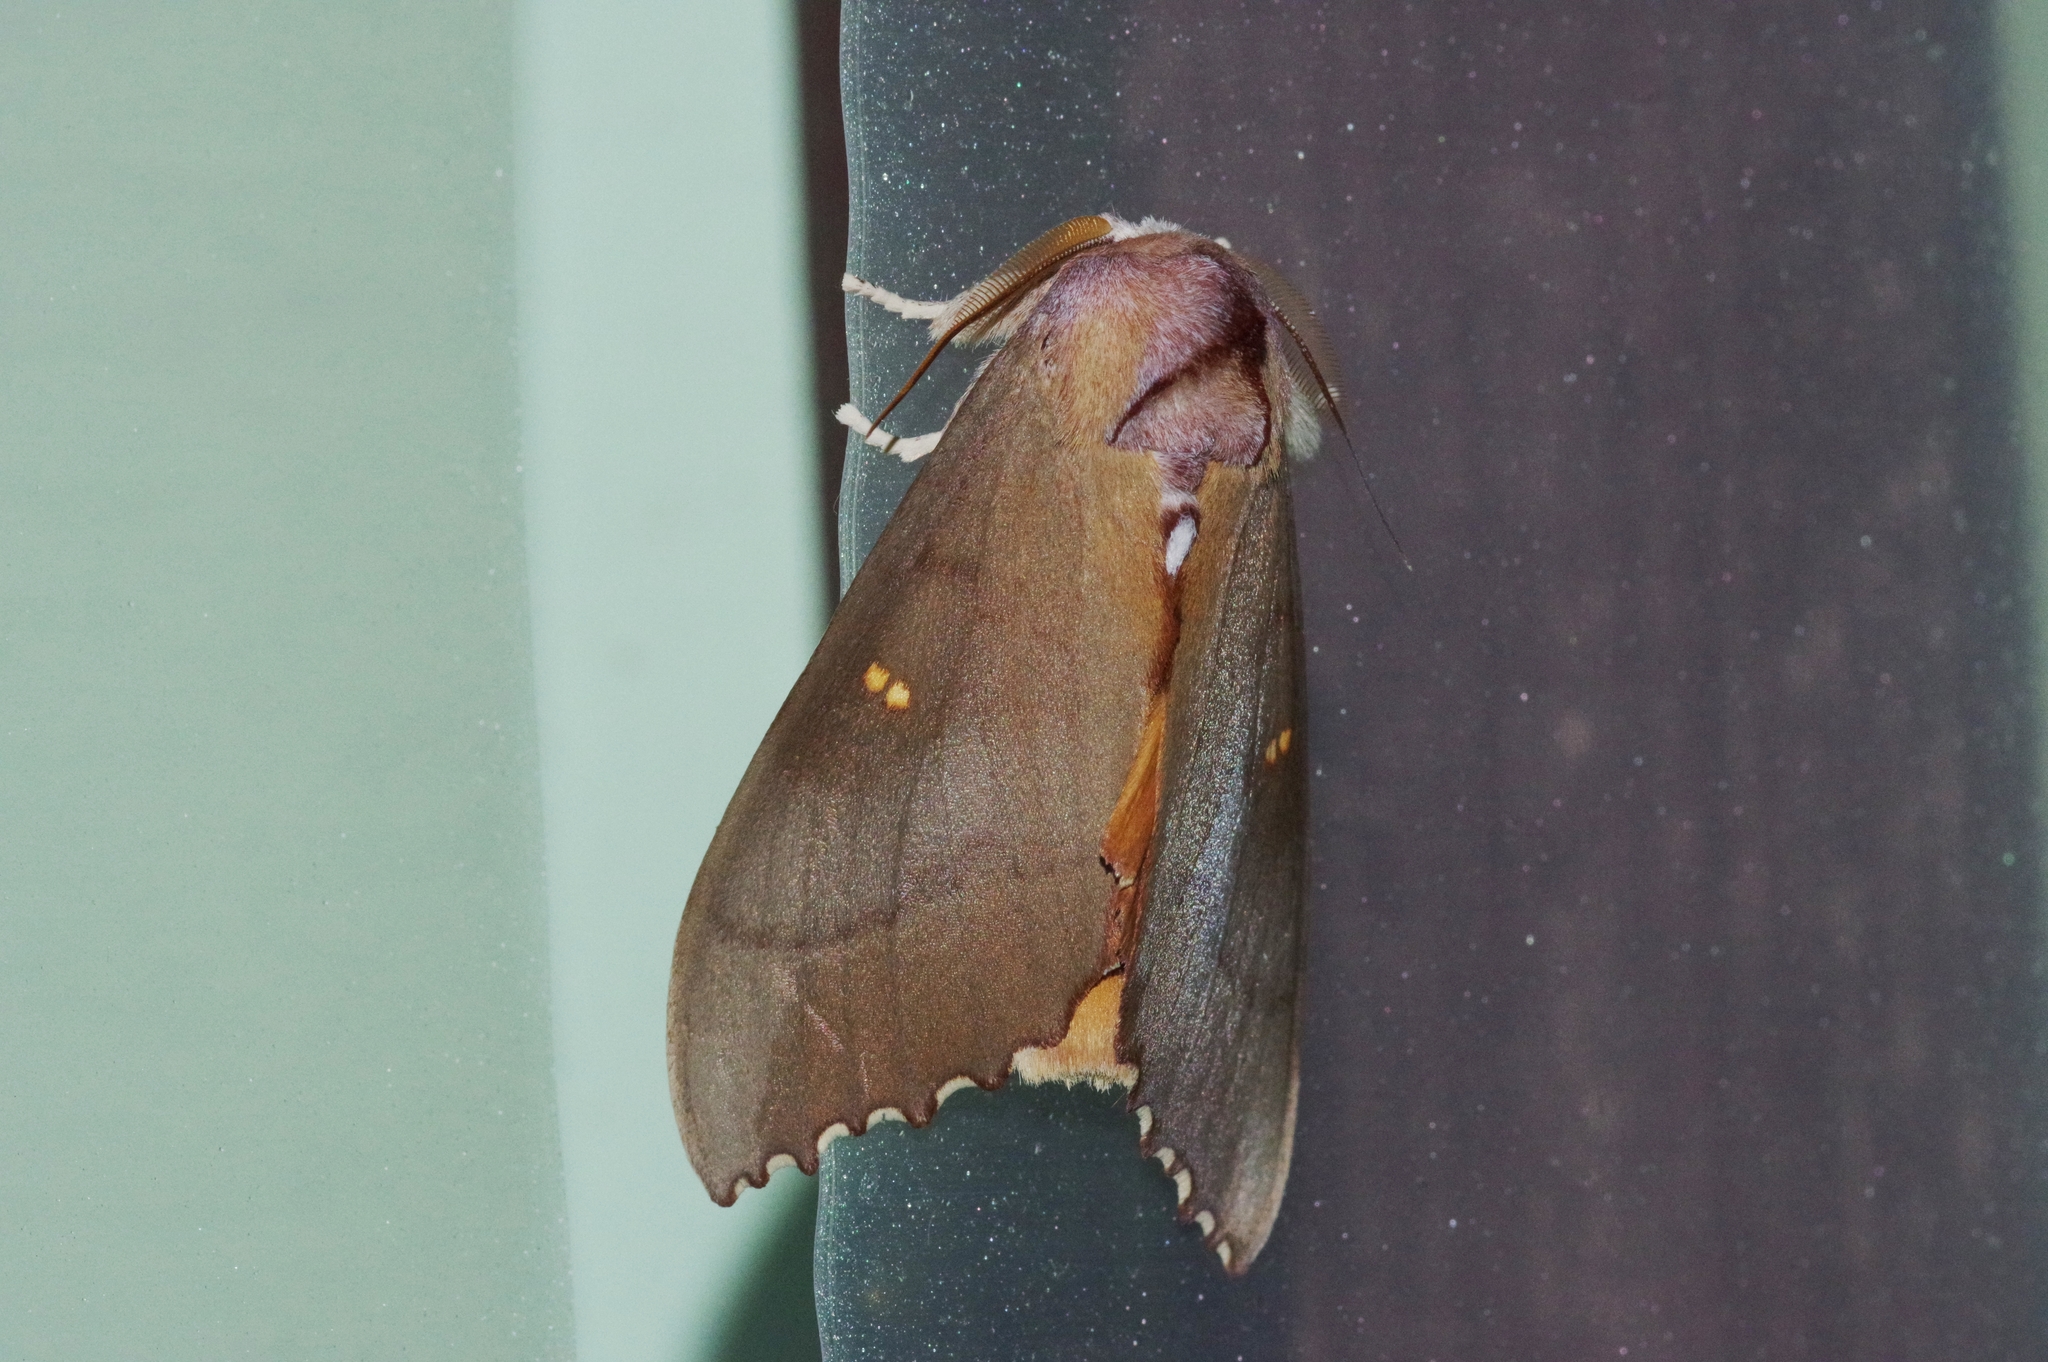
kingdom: Animalia
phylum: Arthropoda
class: Insecta
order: Lepidoptera
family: Notodontidae
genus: Euhampsonia
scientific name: Euhampsonia cristata
